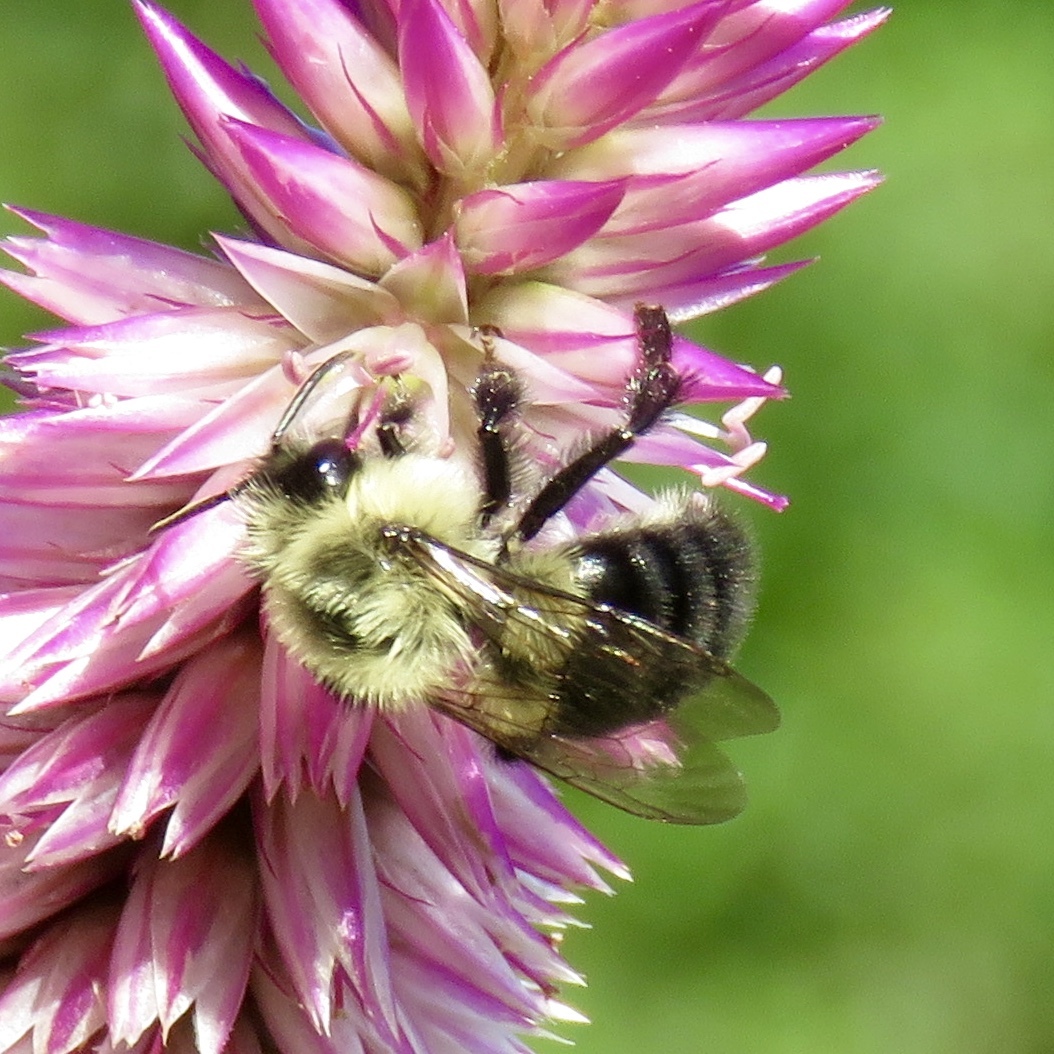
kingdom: Animalia
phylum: Arthropoda
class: Insecta
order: Hymenoptera
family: Apidae
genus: Bombus
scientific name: Bombus impatiens
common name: Common eastern bumble bee
